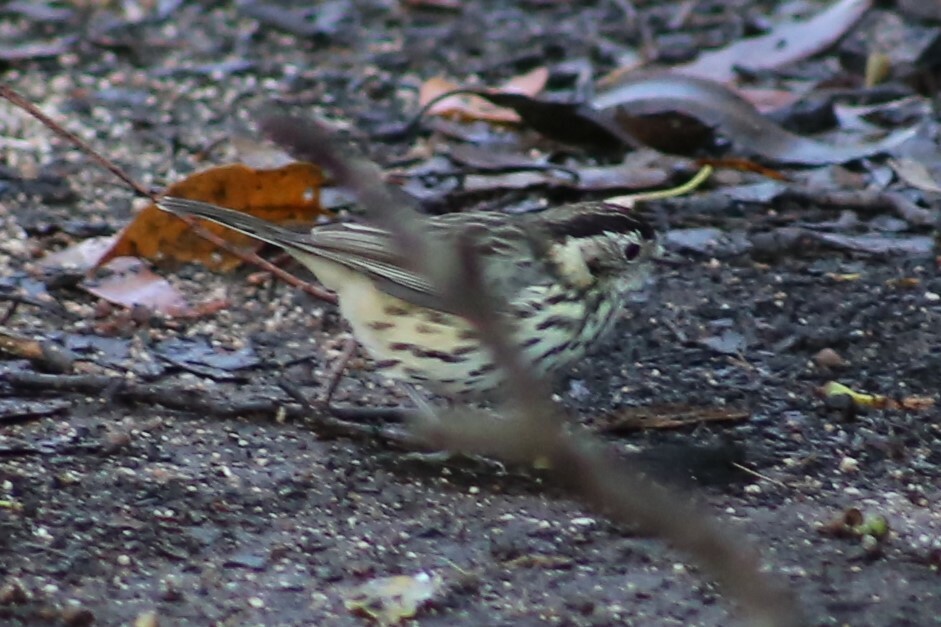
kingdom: Animalia
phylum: Chordata
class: Aves
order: Passeriformes
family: Acanthizidae
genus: Pyrrholaemus
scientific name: Pyrrholaemus sagittatus
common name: Speckled warbler
